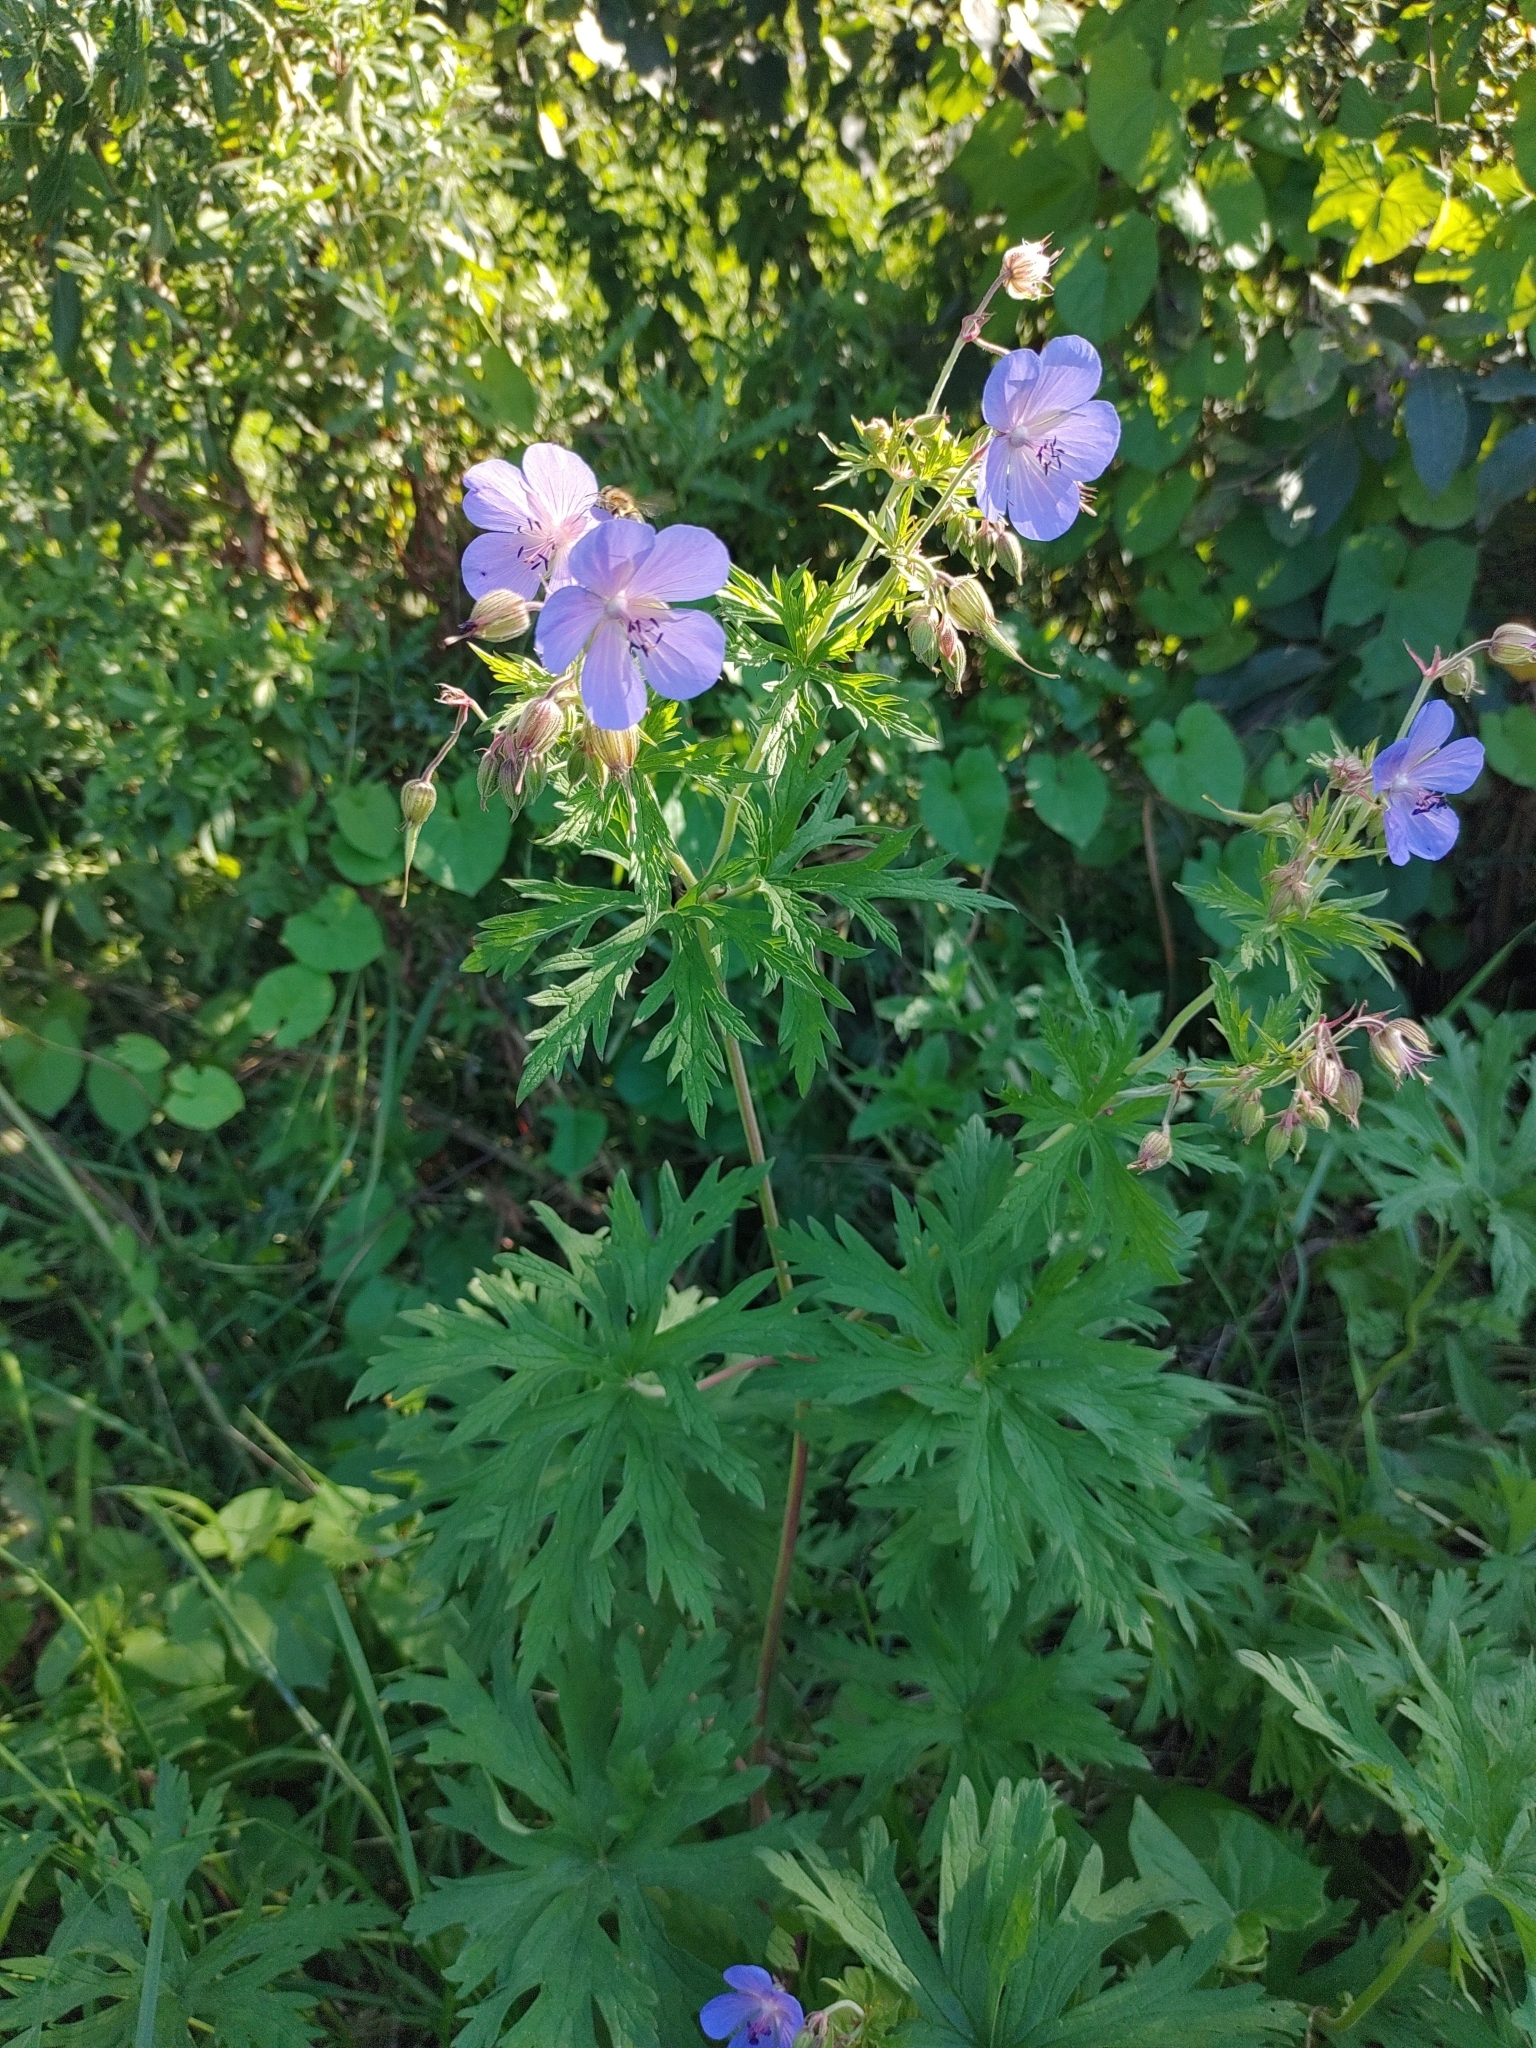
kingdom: Plantae
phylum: Tracheophyta
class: Magnoliopsida
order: Geraniales
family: Geraniaceae
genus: Geranium
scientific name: Geranium pratense
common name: Meadow crane's-bill
